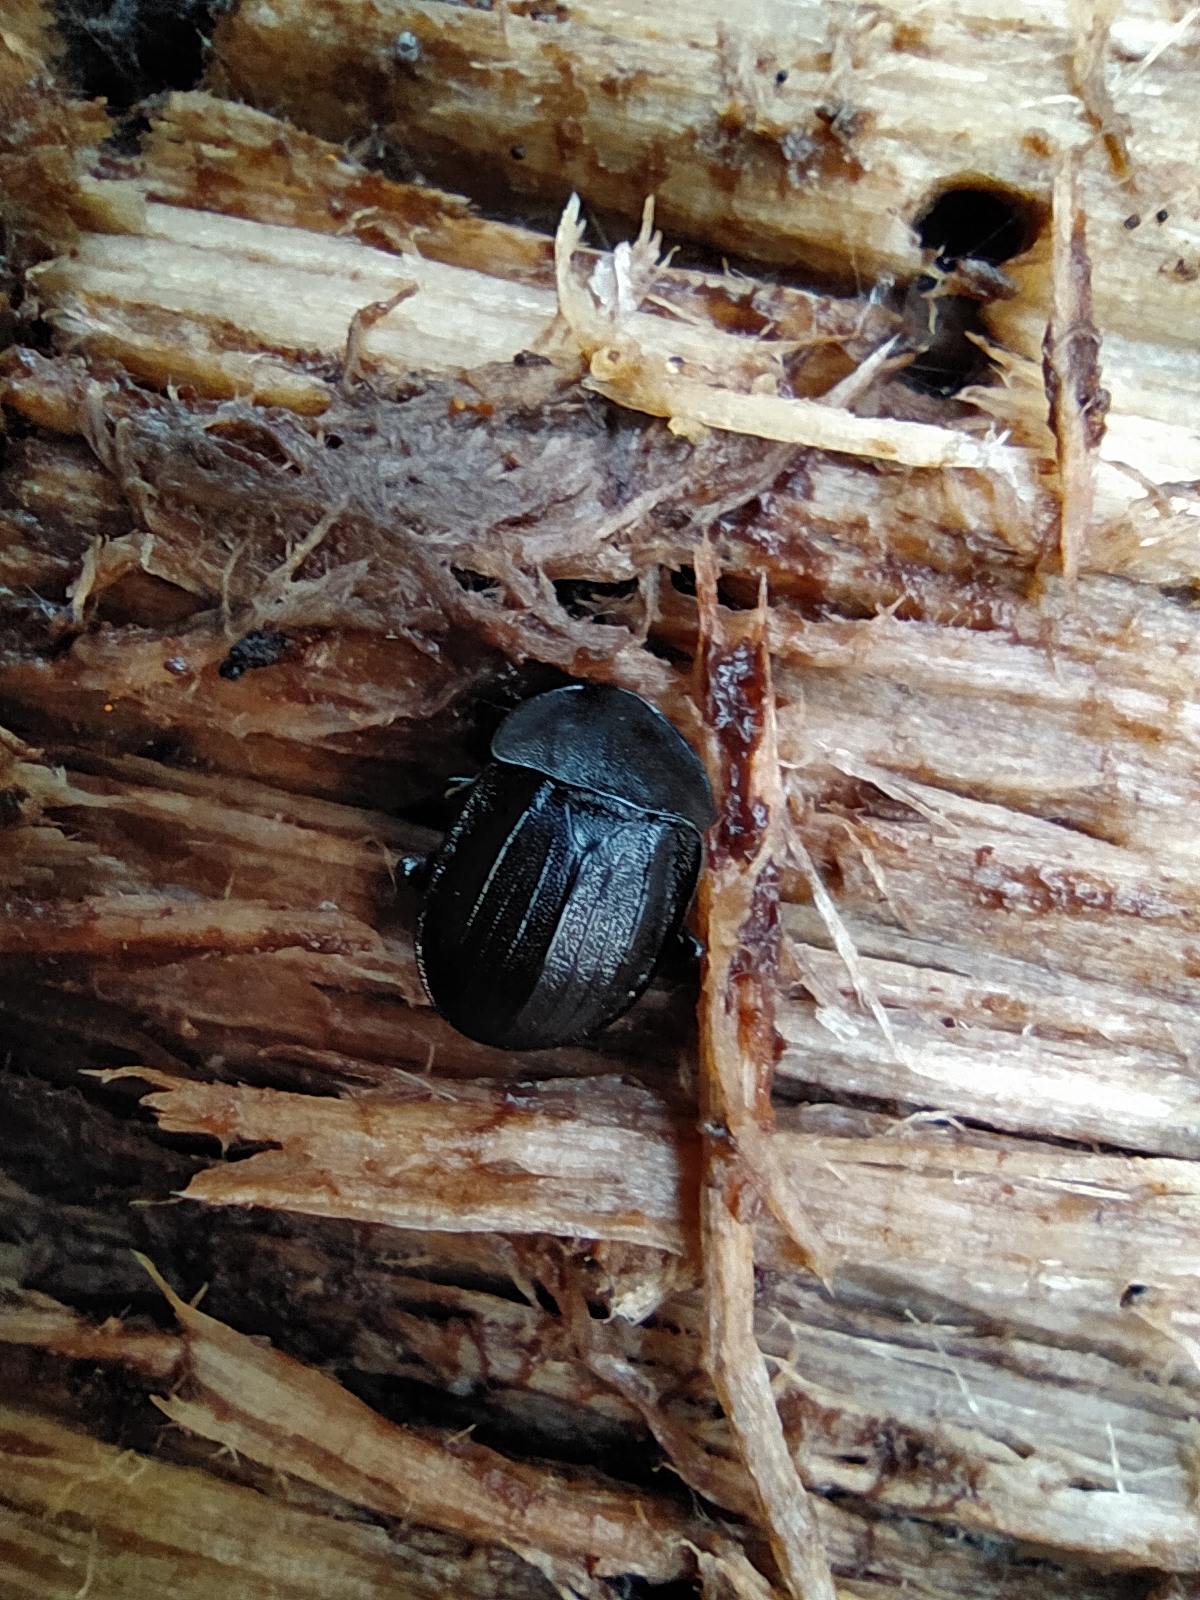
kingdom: Animalia
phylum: Arthropoda
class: Insecta
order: Coleoptera
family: Staphylinidae
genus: Silpha
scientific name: Silpha atrata
